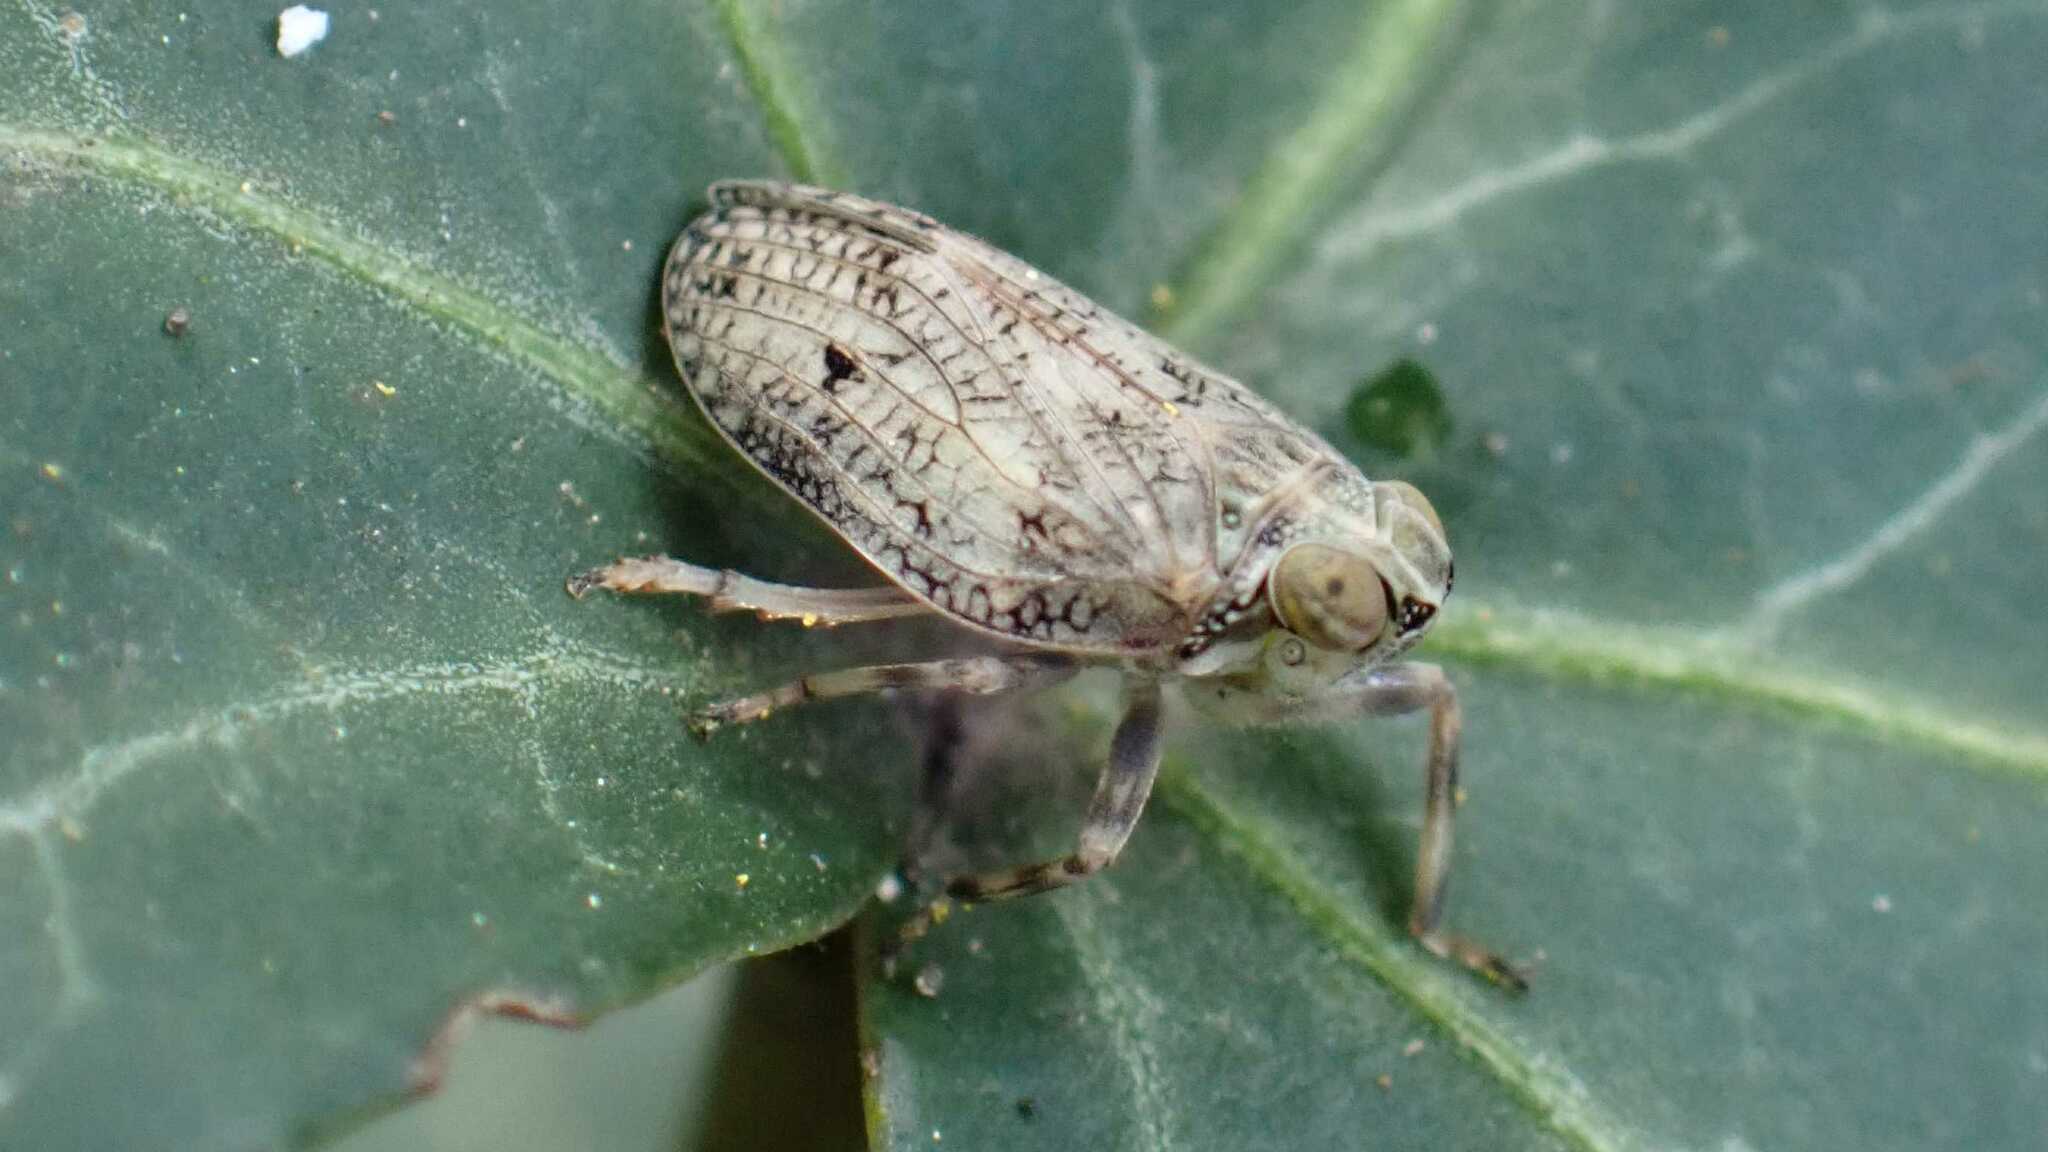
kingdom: Animalia
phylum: Arthropoda
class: Insecta
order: Hemiptera
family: Issidae
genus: Issus
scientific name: Issus coleoptratus
